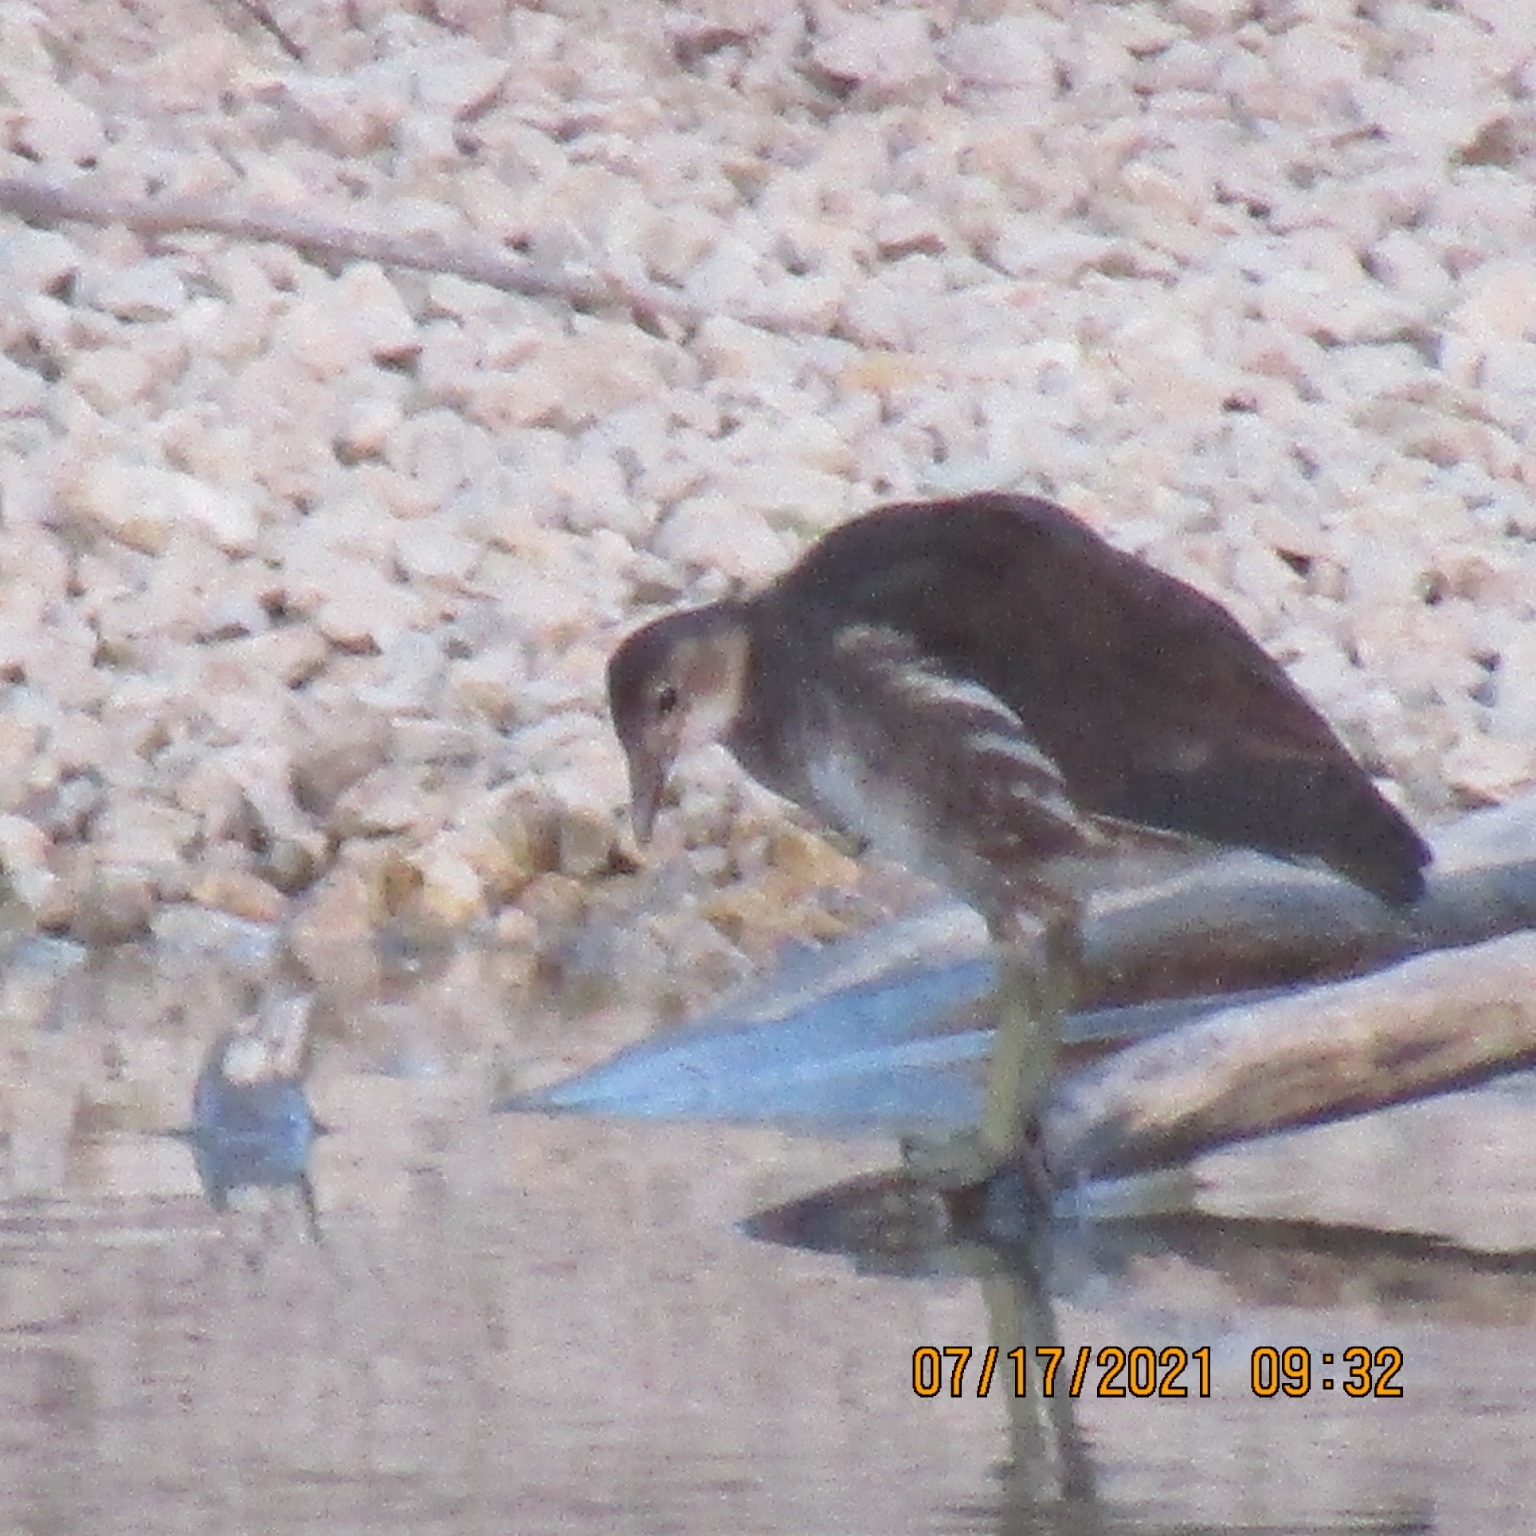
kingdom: Animalia
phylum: Chordata
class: Aves
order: Gruiformes
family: Rallidae
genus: Gallinula
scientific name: Gallinula chloropus
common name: Common moorhen
